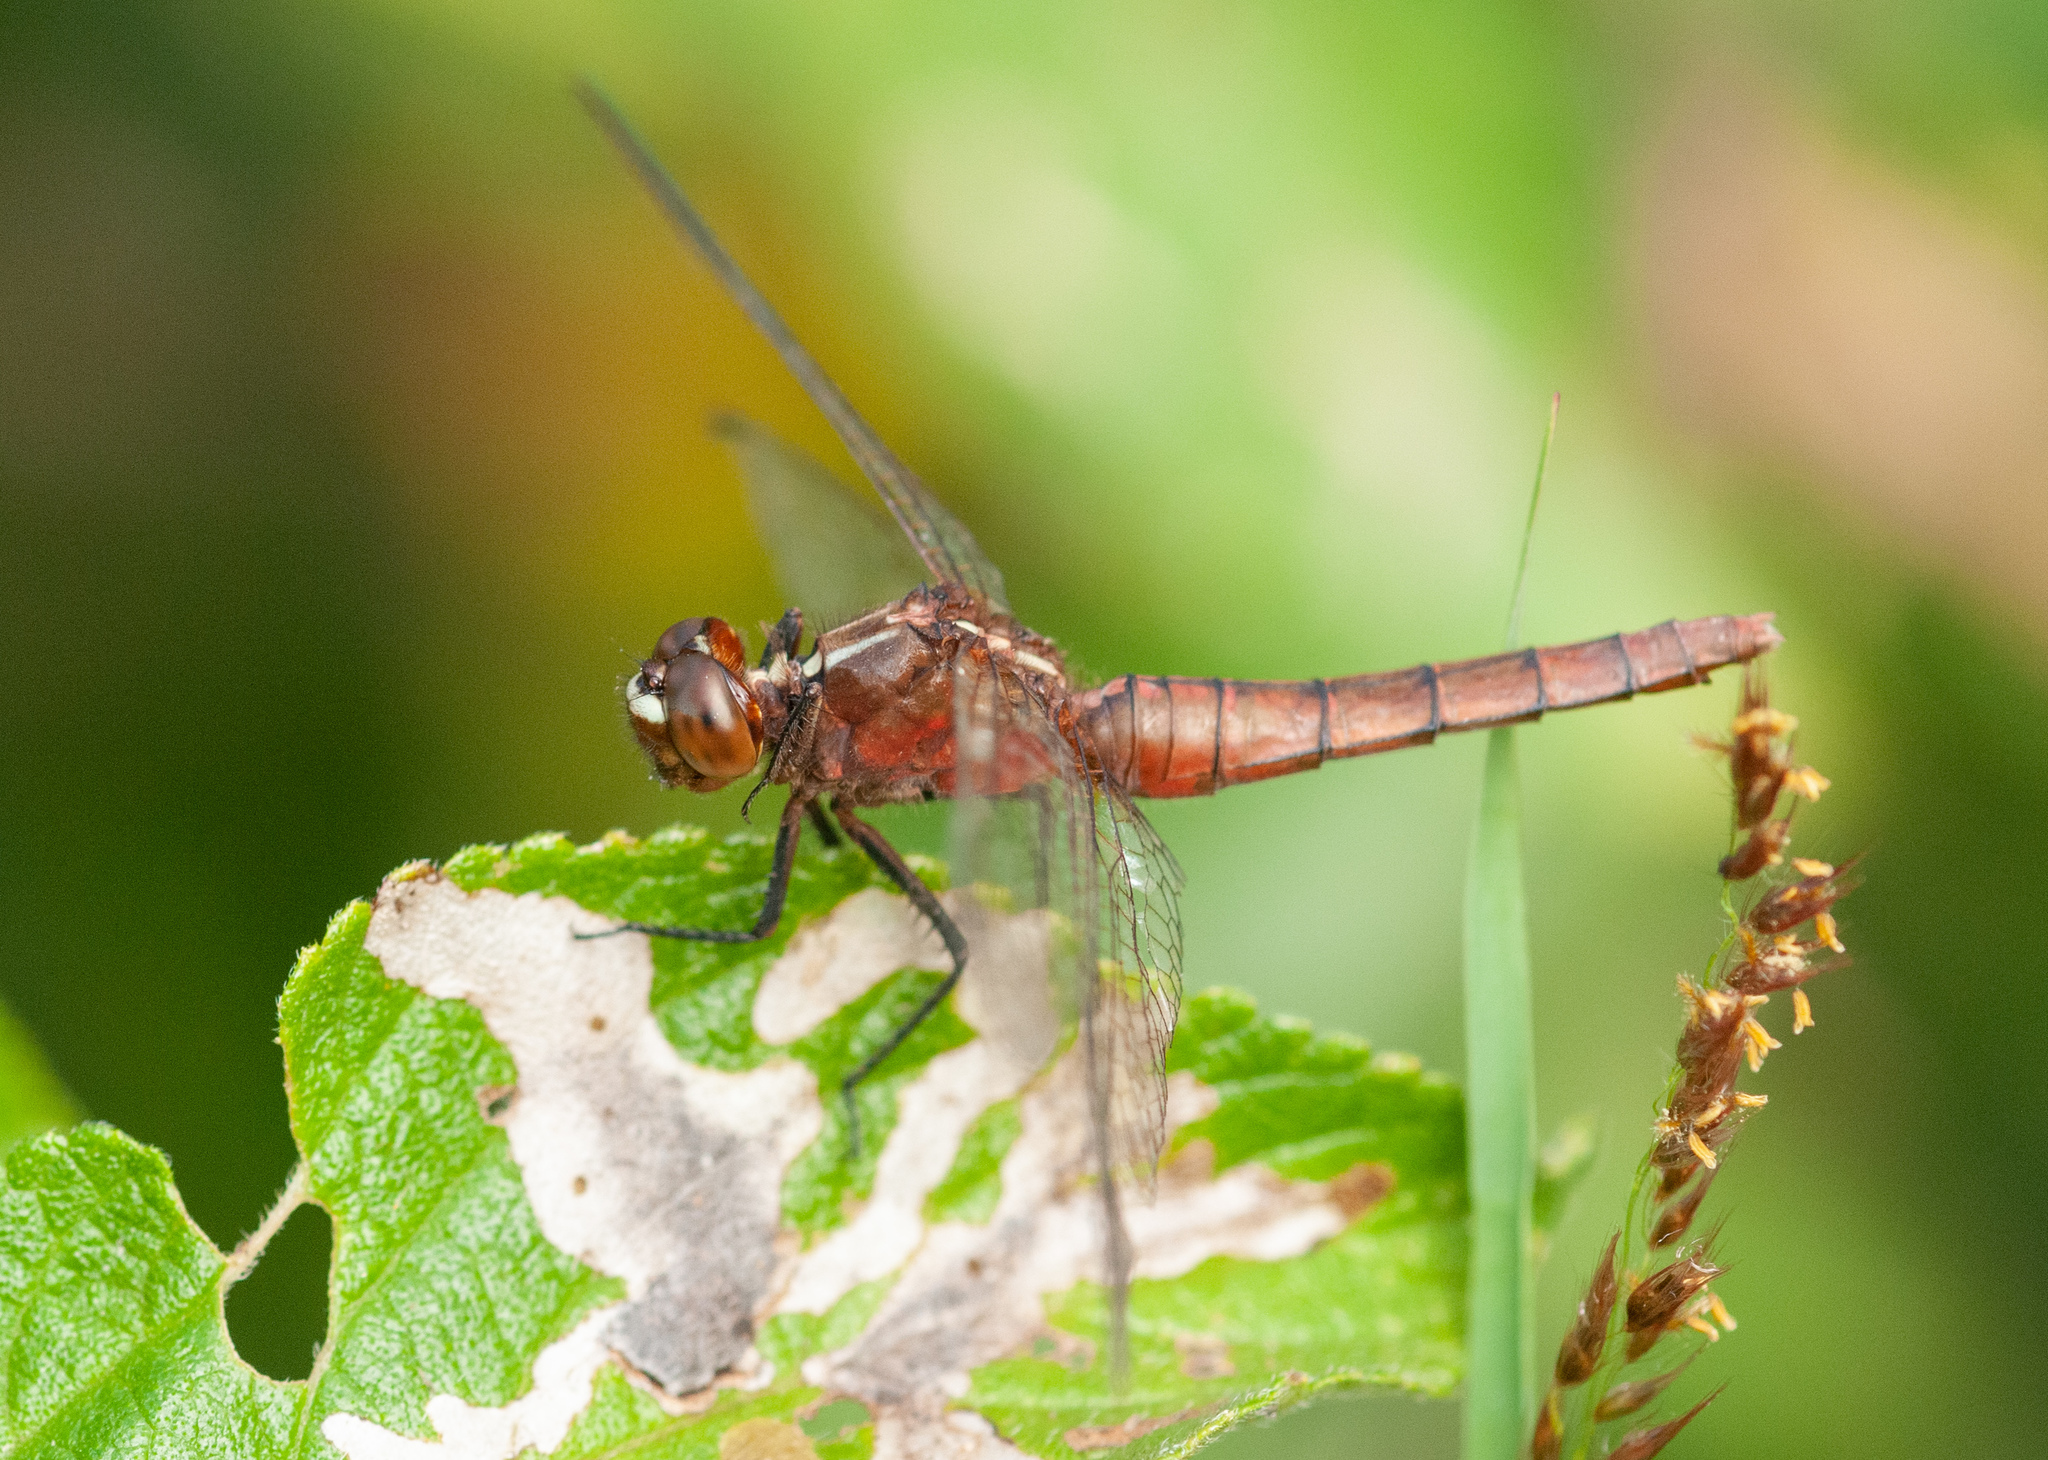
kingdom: Animalia
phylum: Arthropoda
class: Insecta
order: Odonata
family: Libellulidae
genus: Rhodothemis
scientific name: Rhodothemis lieftincki
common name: Red arrow
